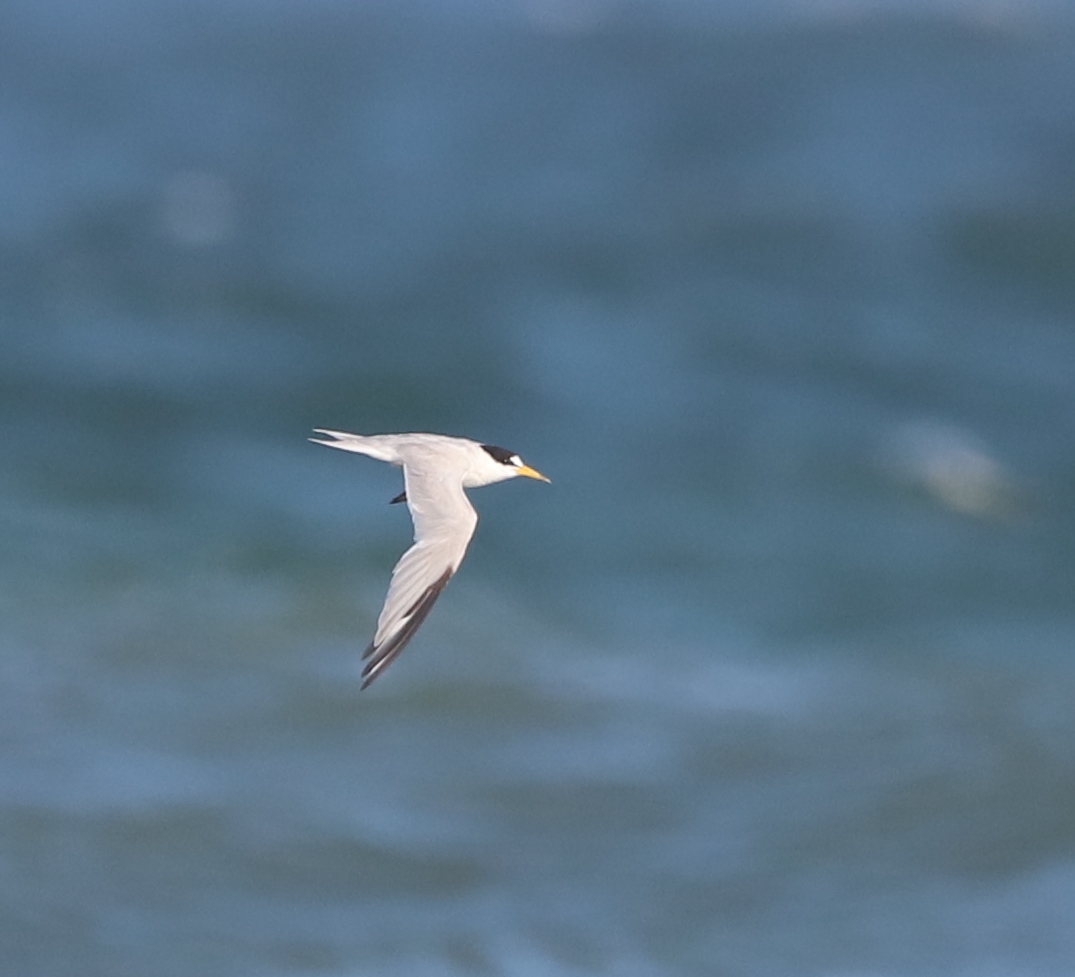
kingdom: Animalia
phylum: Chordata
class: Aves
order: Charadriiformes
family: Laridae
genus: Sternula
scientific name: Sternula antillarum
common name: Least tern
